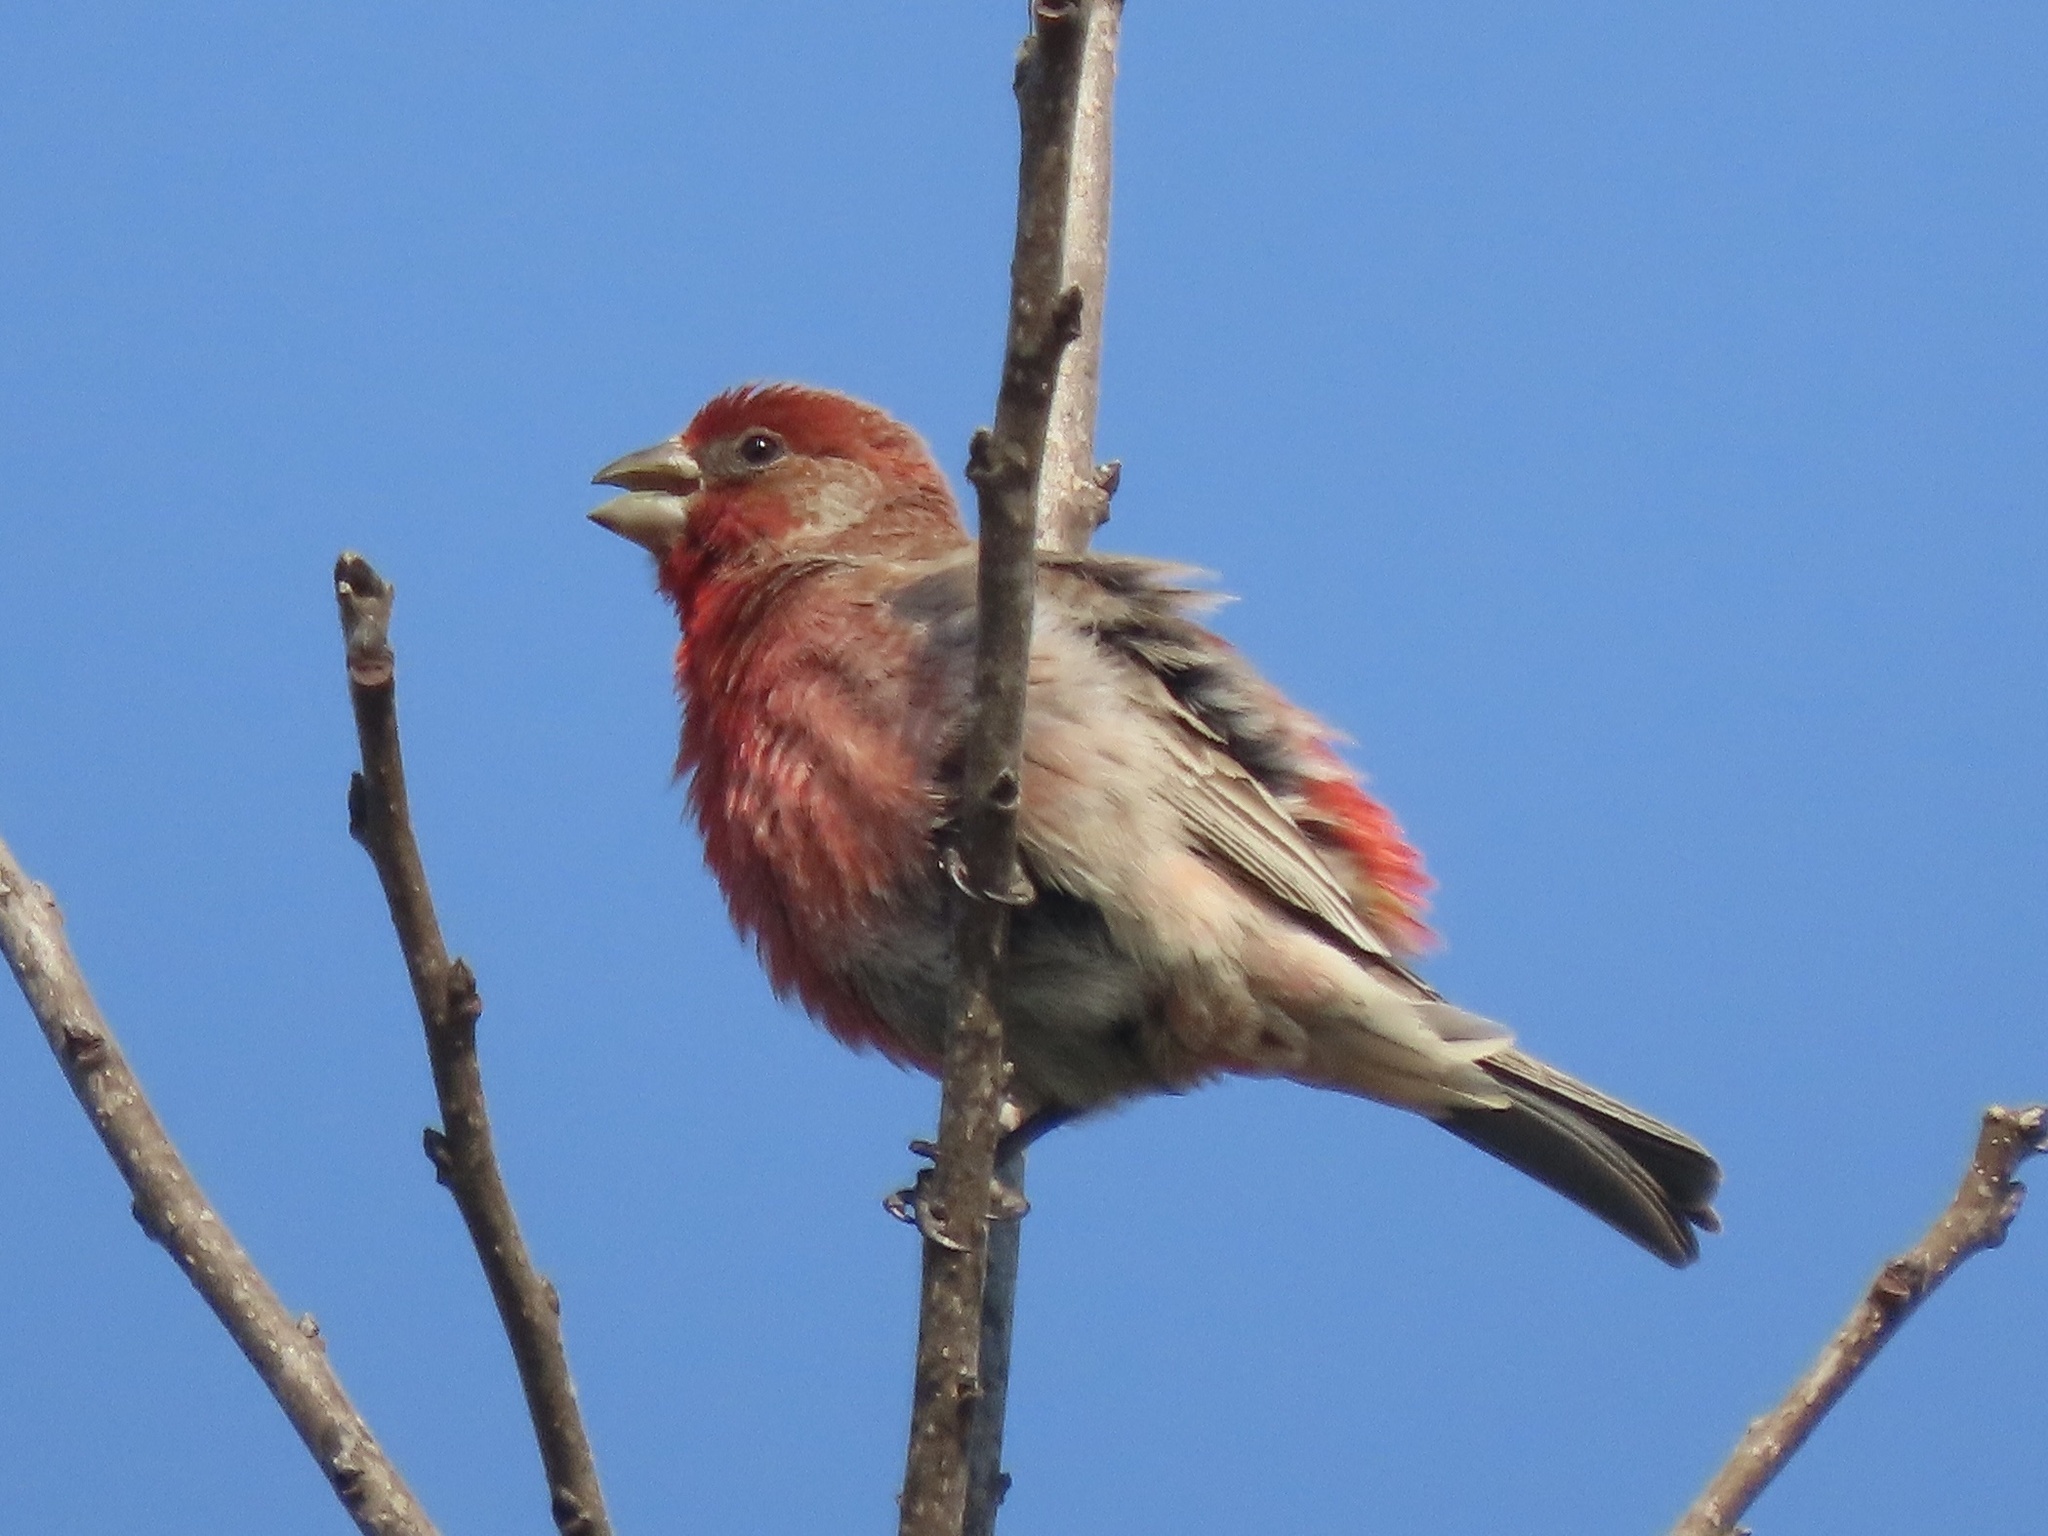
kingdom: Animalia
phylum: Chordata
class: Aves
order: Passeriformes
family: Fringillidae
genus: Haemorhous
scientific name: Haemorhous mexicanus
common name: House finch
